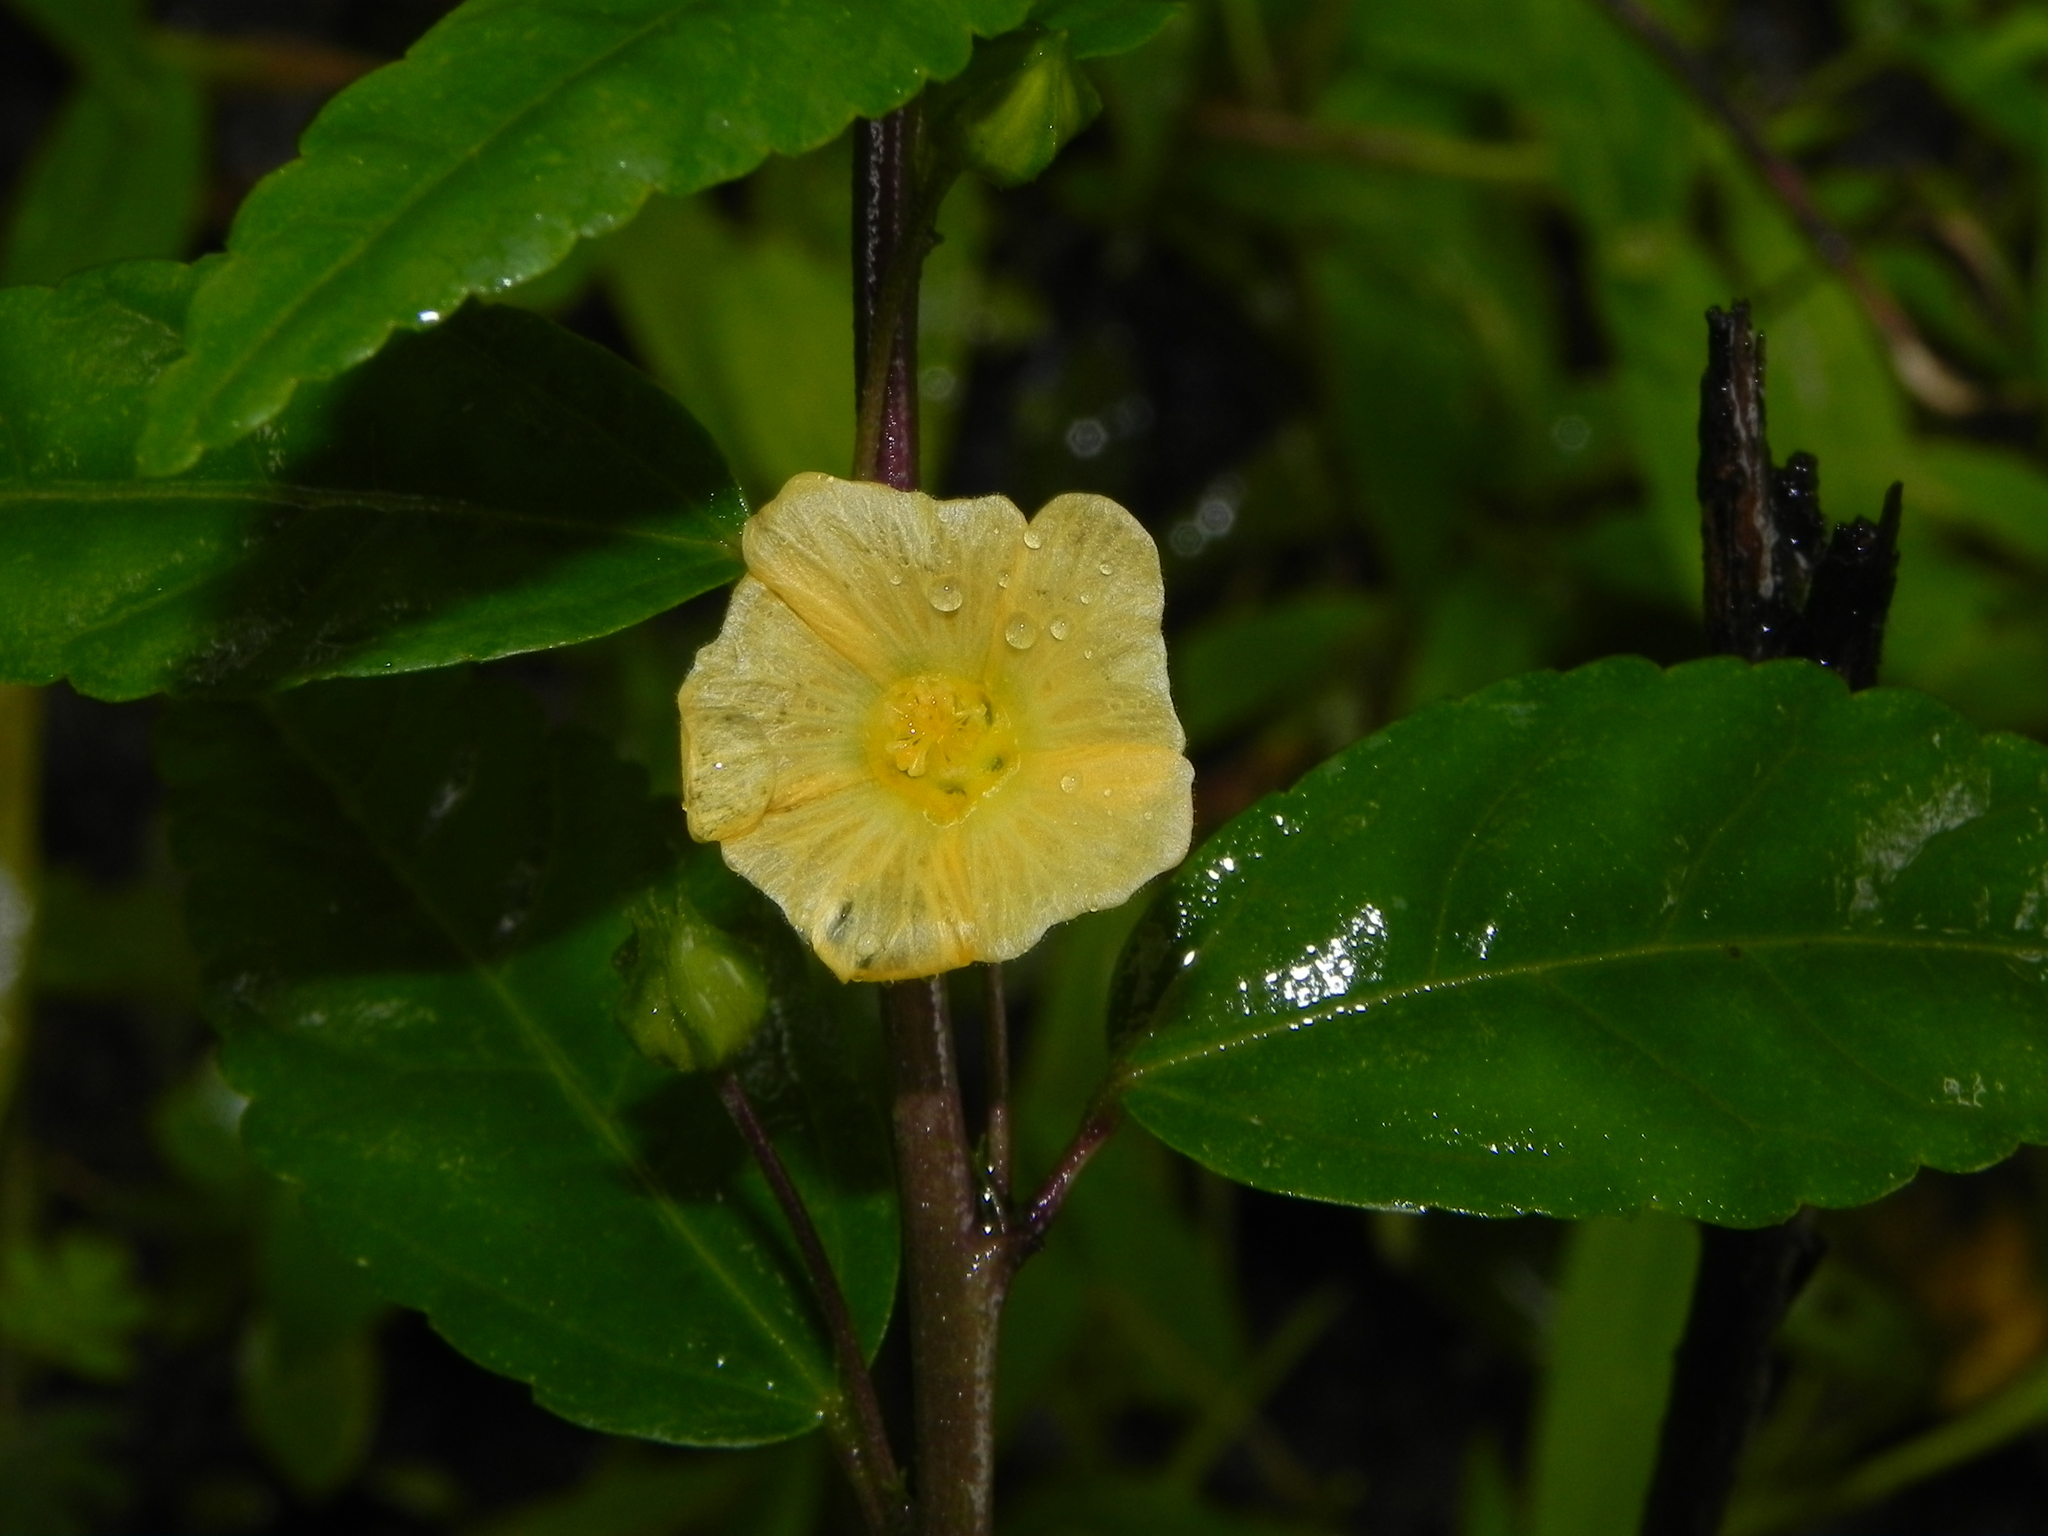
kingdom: Plantae
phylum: Tracheophyta
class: Magnoliopsida
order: Malvales
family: Malvaceae
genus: Sida
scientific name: Sida acuta
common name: Common wireweed
